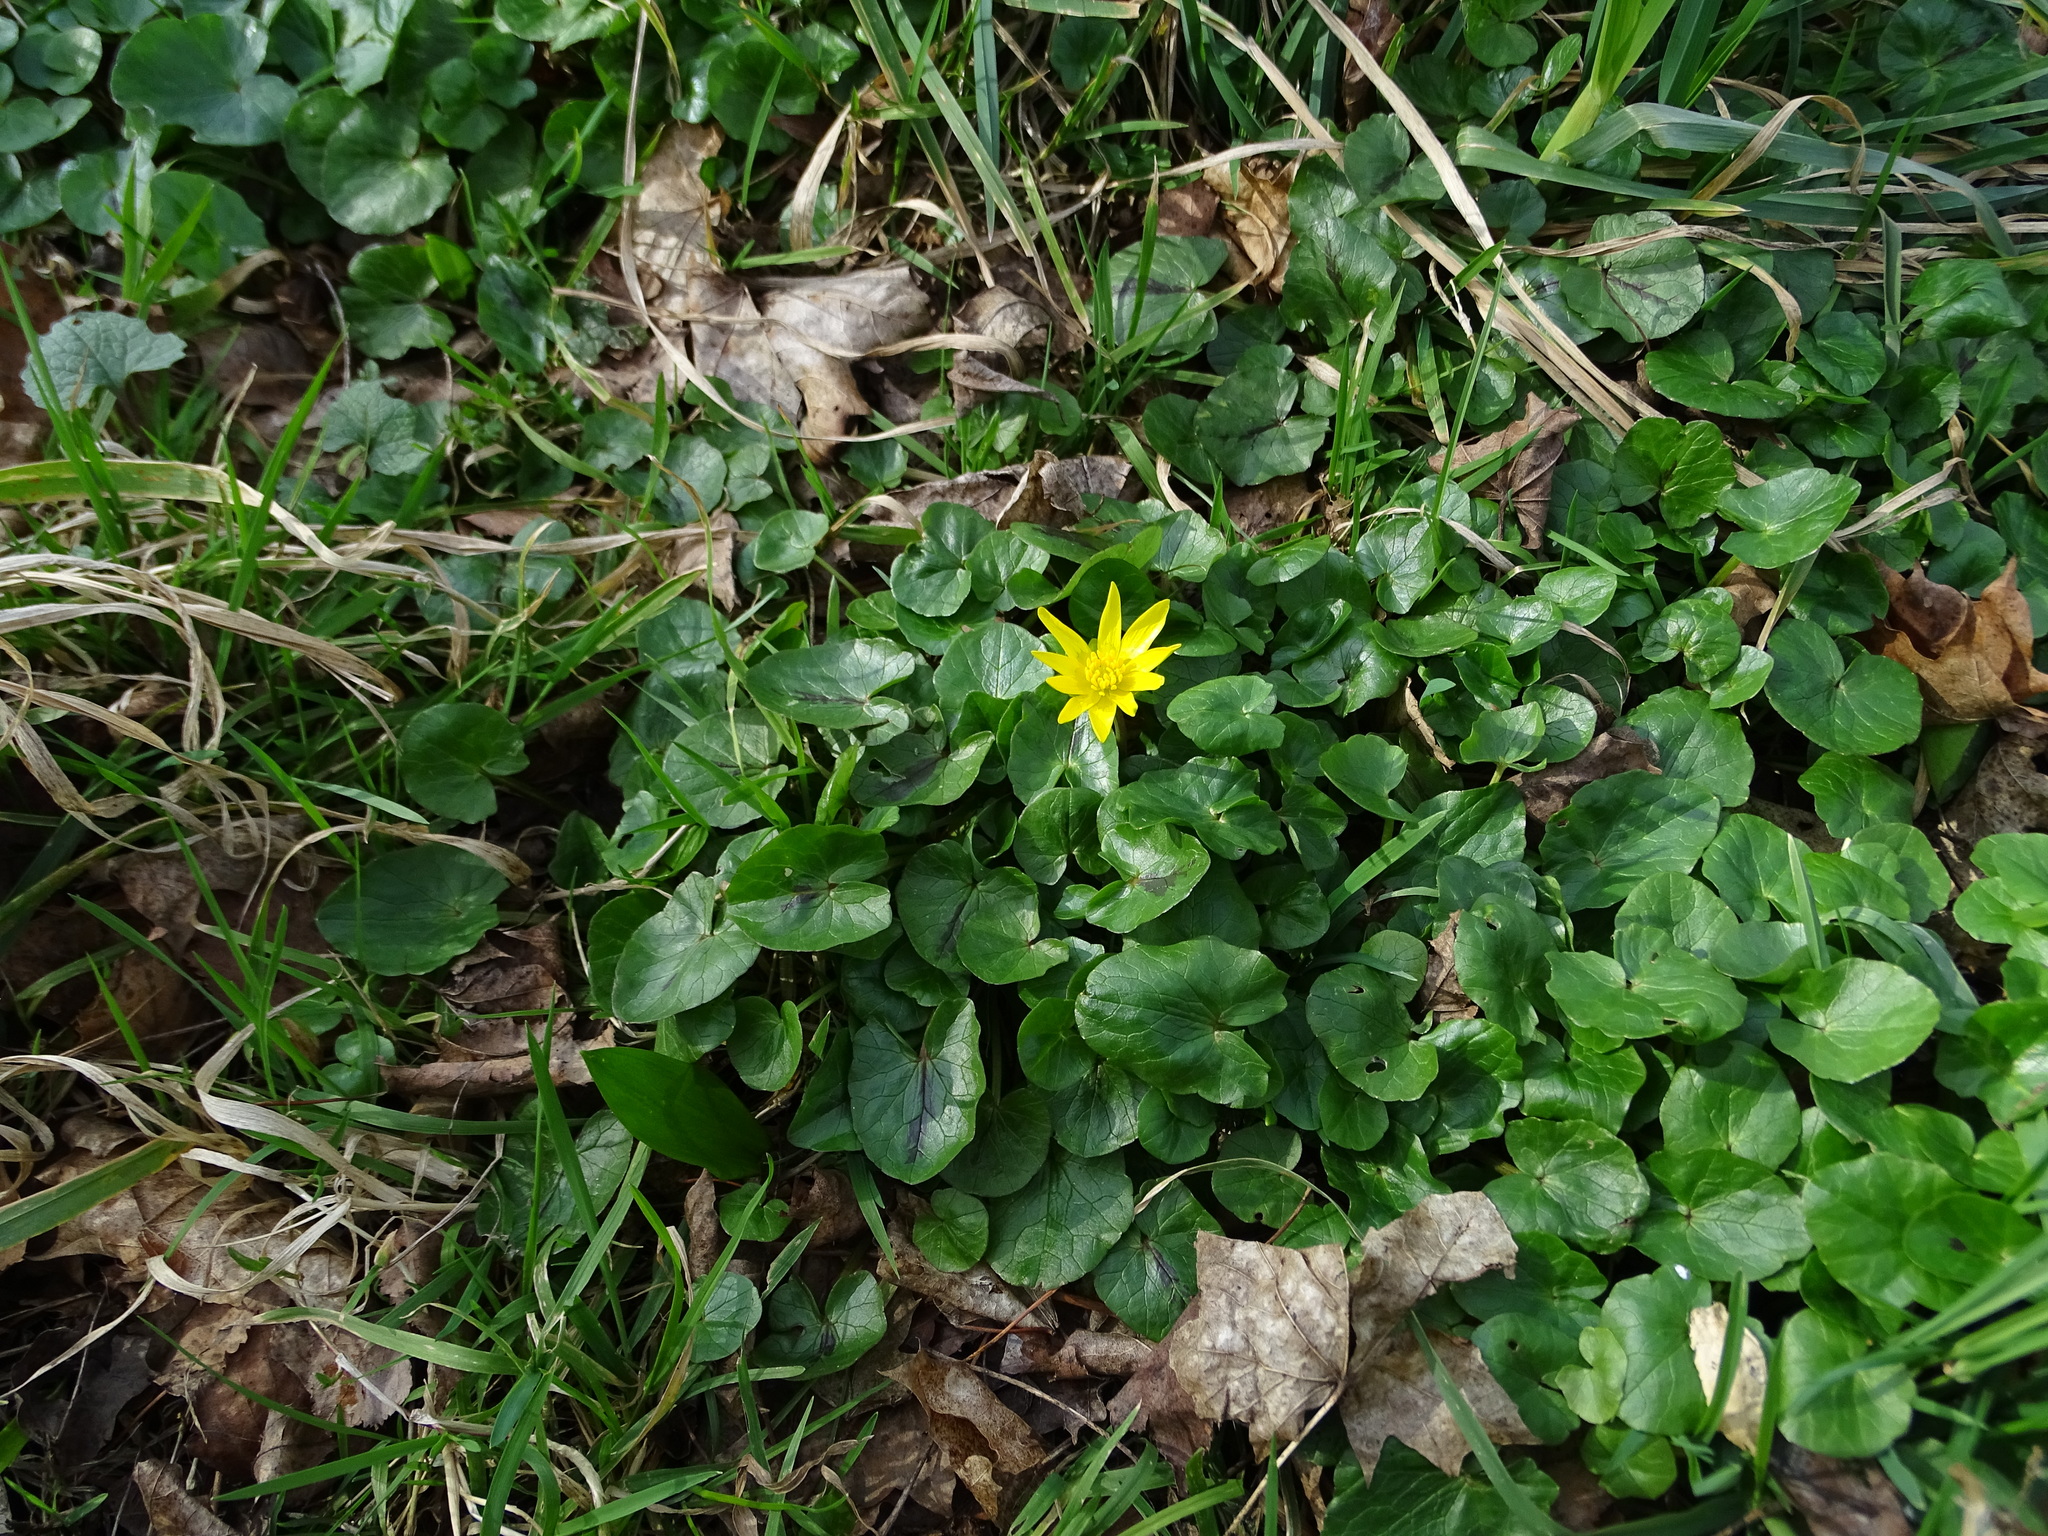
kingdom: Plantae
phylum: Tracheophyta
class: Magnoliopsida
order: Ranunculales
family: Ranunculaceae
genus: Ficaria
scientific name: Ficaria verna
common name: Lesser celandine
